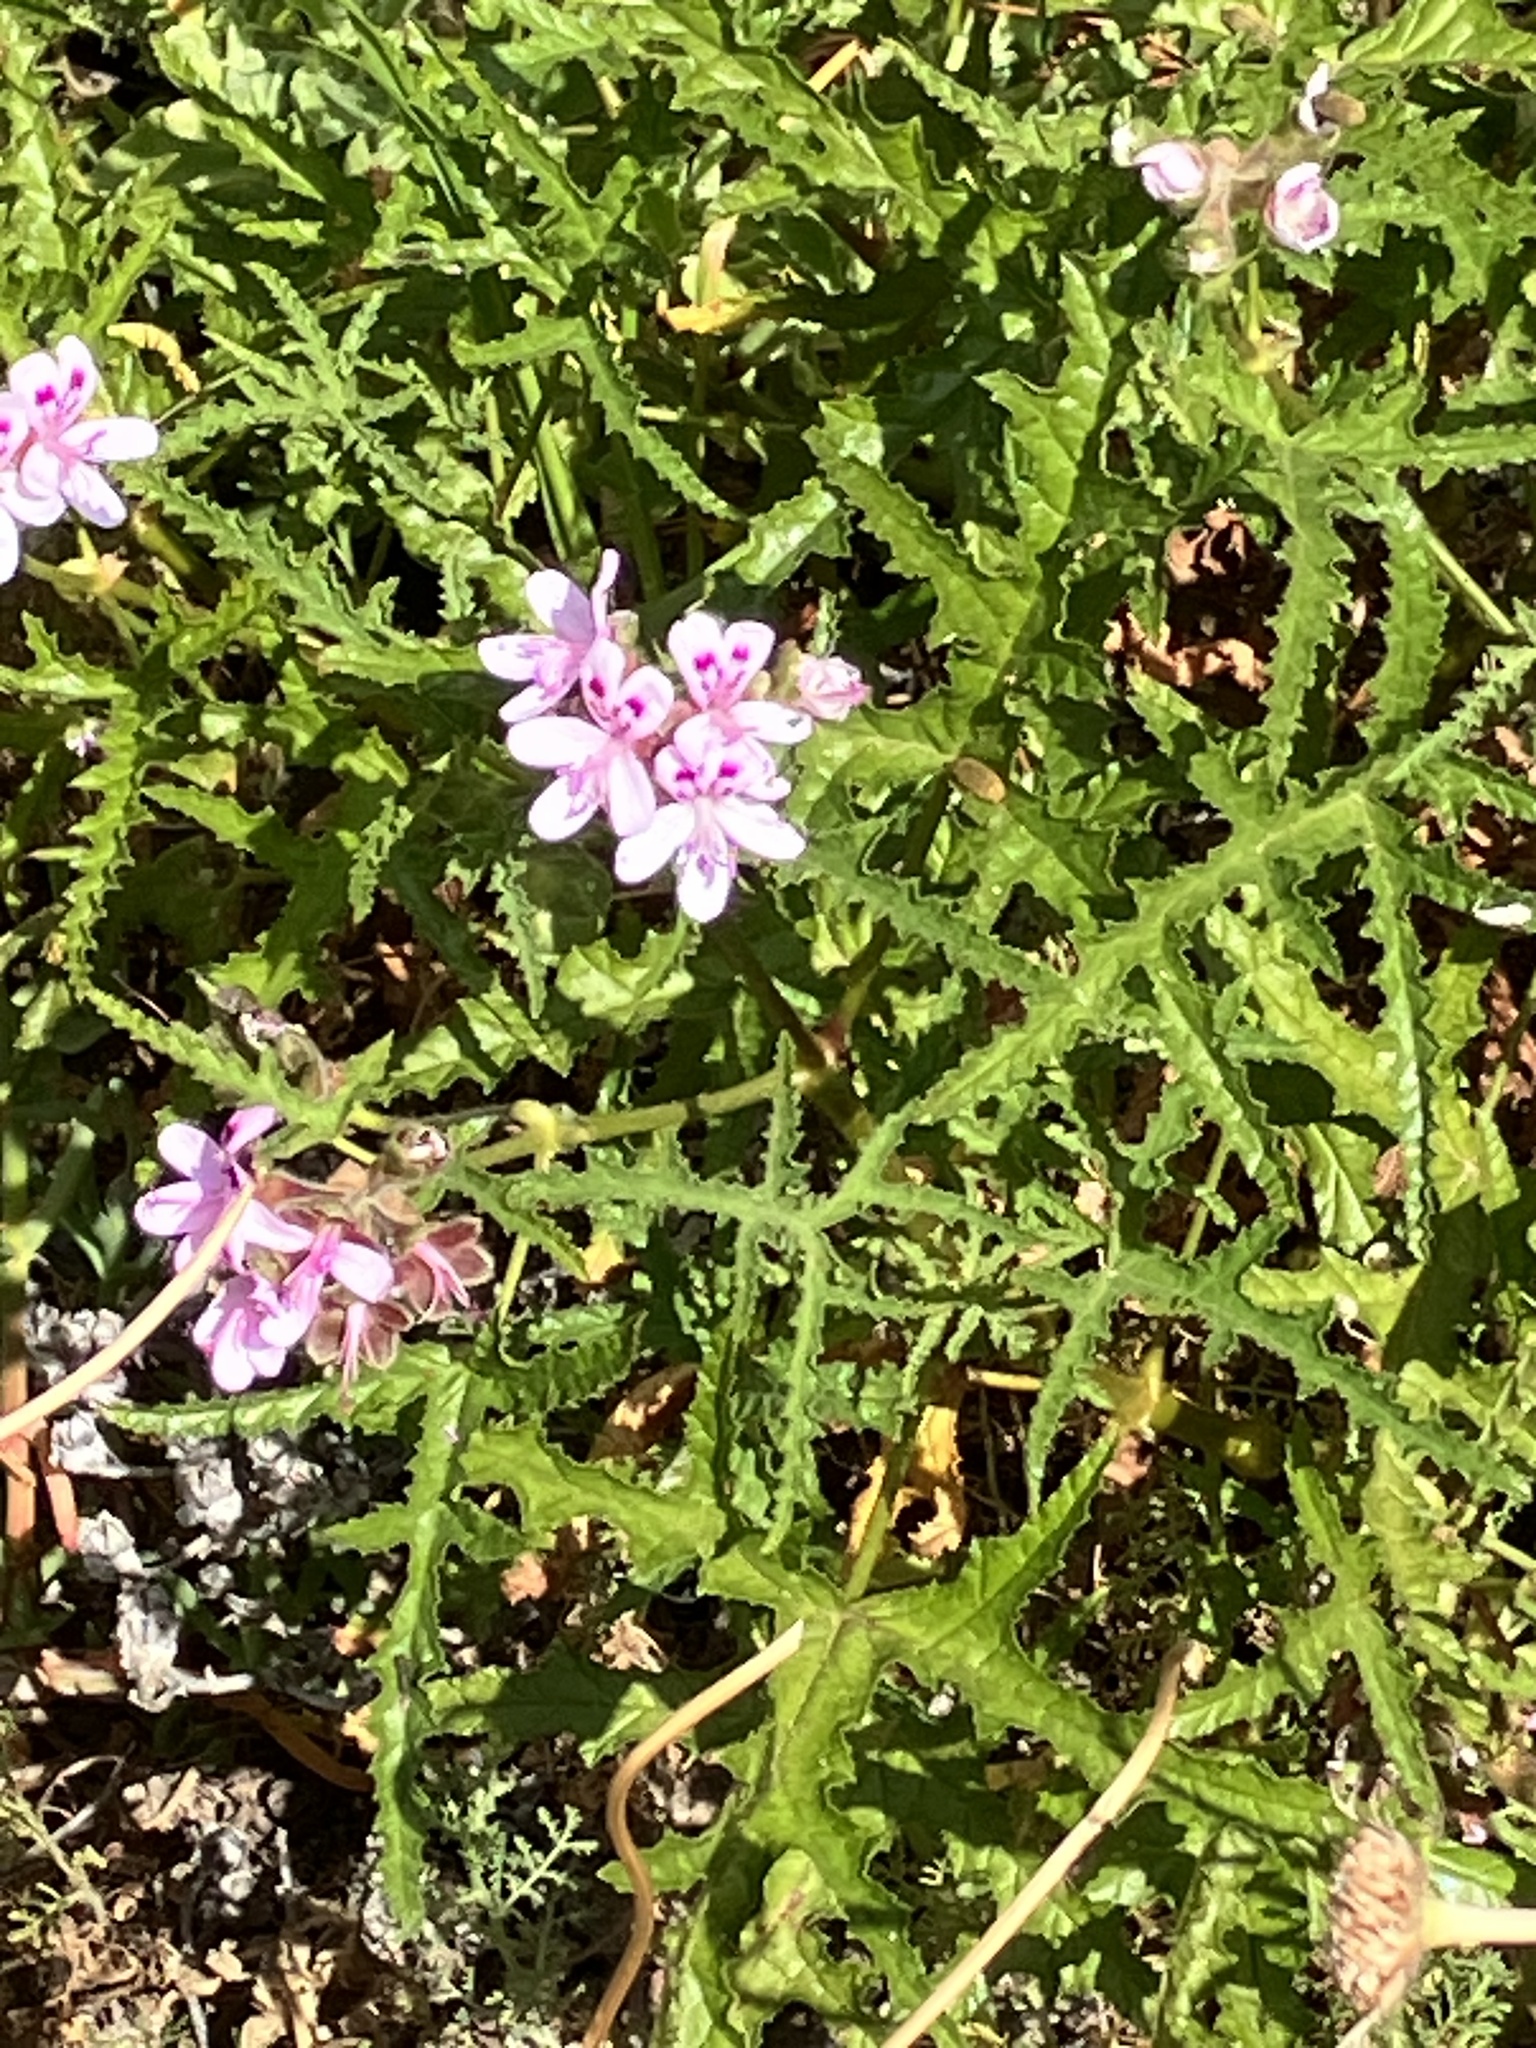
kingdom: Plantae
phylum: Tracheophyta
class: Magnoliopsida
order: Geraniales
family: Geraniaceae
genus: Pelargonium
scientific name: Pelargonium glutinosum
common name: Pheasant-foot geranium
